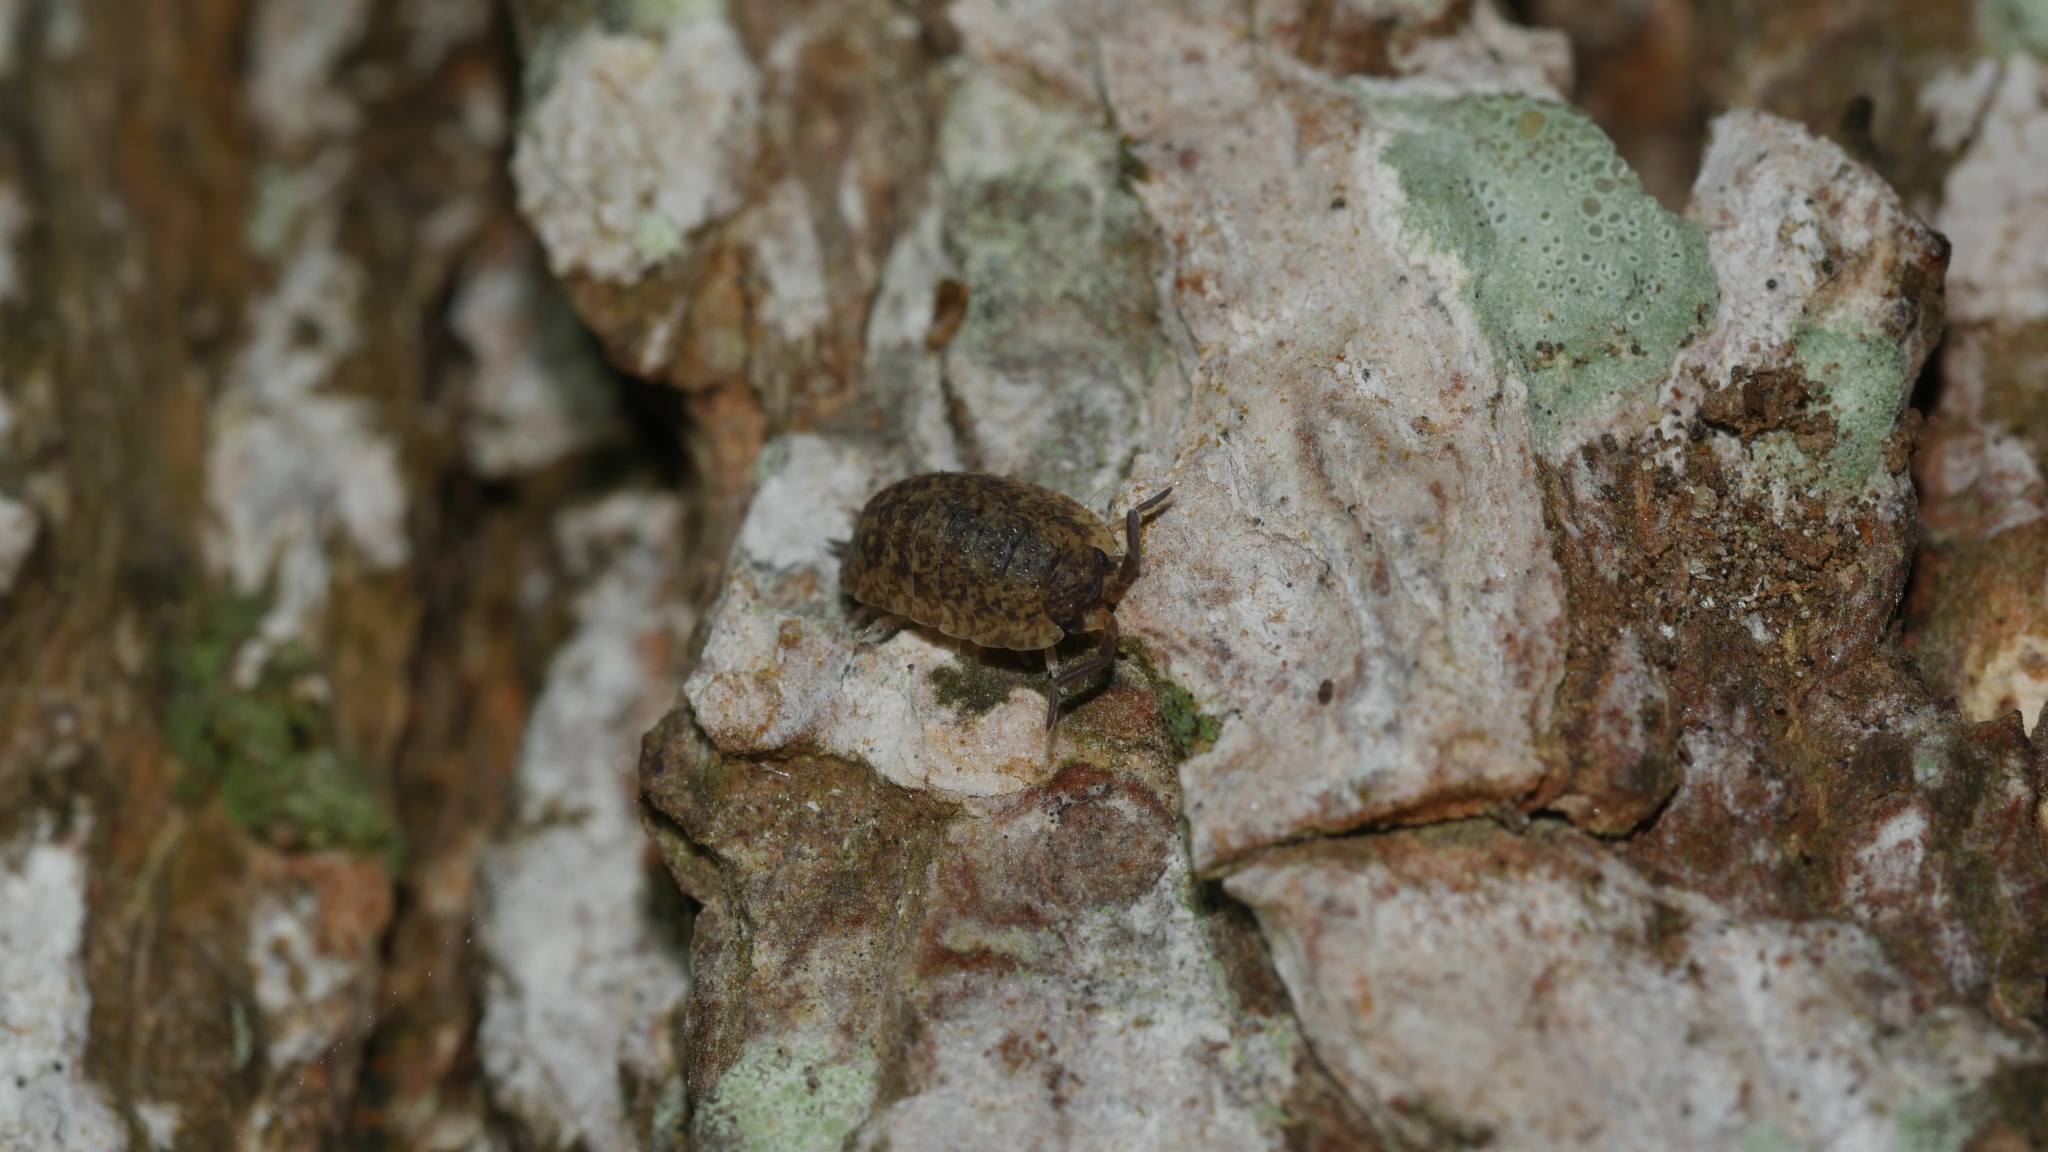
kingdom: Animalia
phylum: Arthropoda
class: Malacostraca
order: Isopoda
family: Porcellionidae
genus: Porcellio
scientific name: Porcellio scaber
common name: Common rough woodlouse
